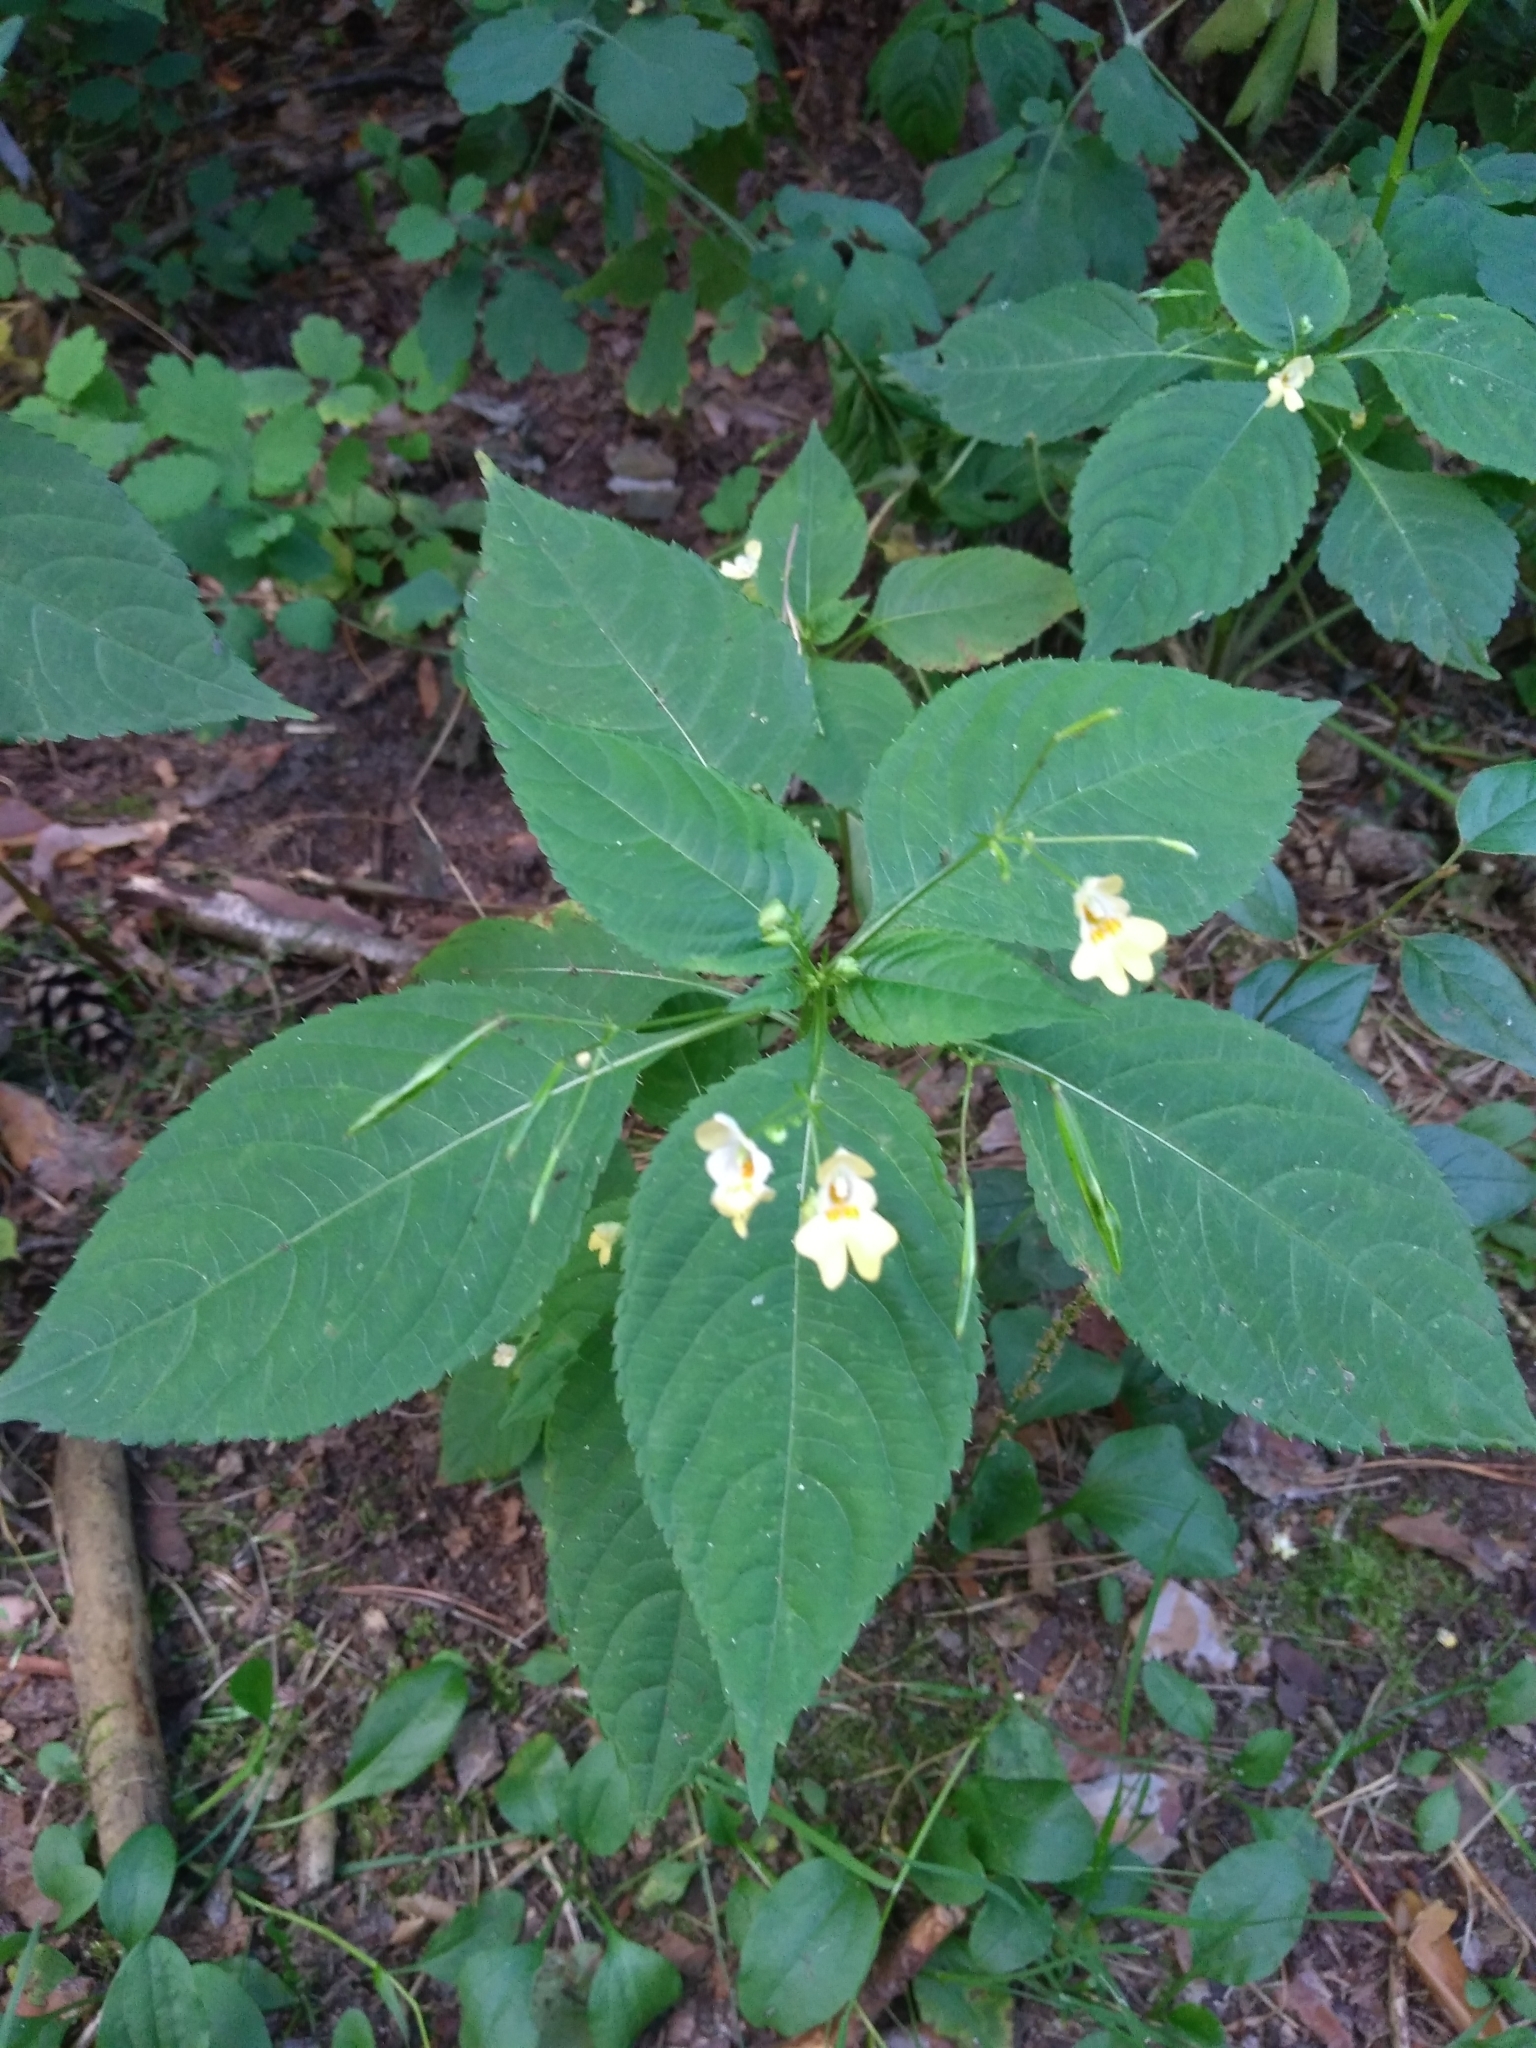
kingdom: Plantae
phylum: Tracheophyta
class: Magnoliopsida
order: Ericales
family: Balsaminaceae
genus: Impatiens
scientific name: Impatiens parviflora
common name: Small balsam
